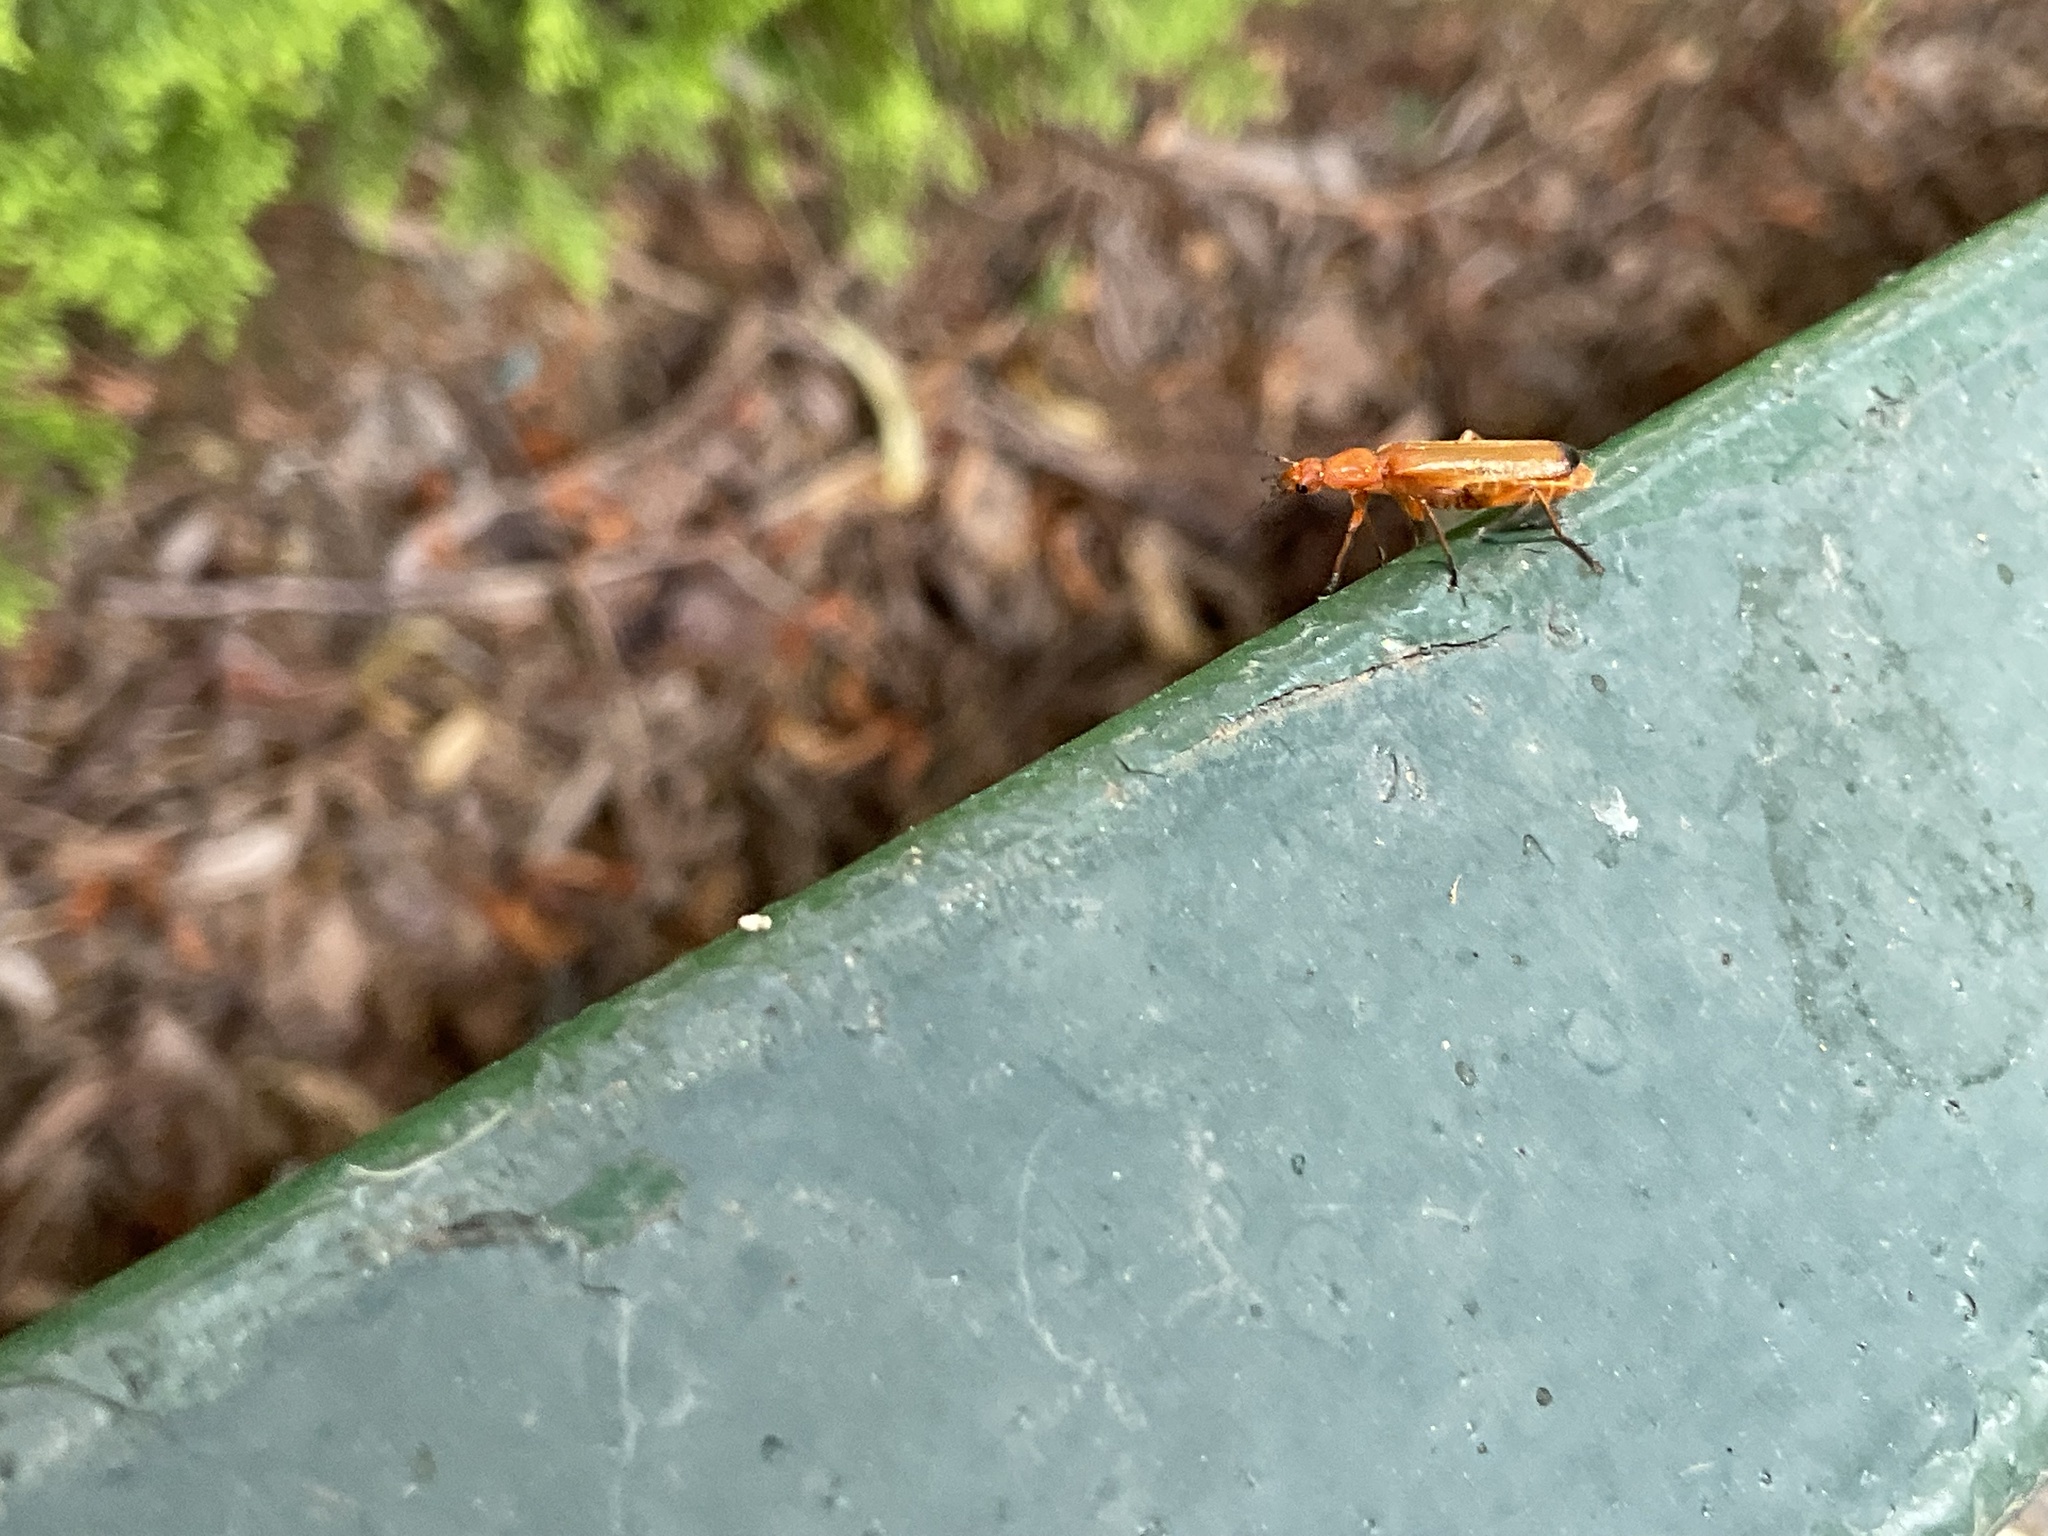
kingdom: Animalia
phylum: Arthropoda
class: Insecta
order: Coleoptera
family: Cantharidae
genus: Rhagonycha
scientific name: Rhagonycha fulva
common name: Common red soldier beetle
